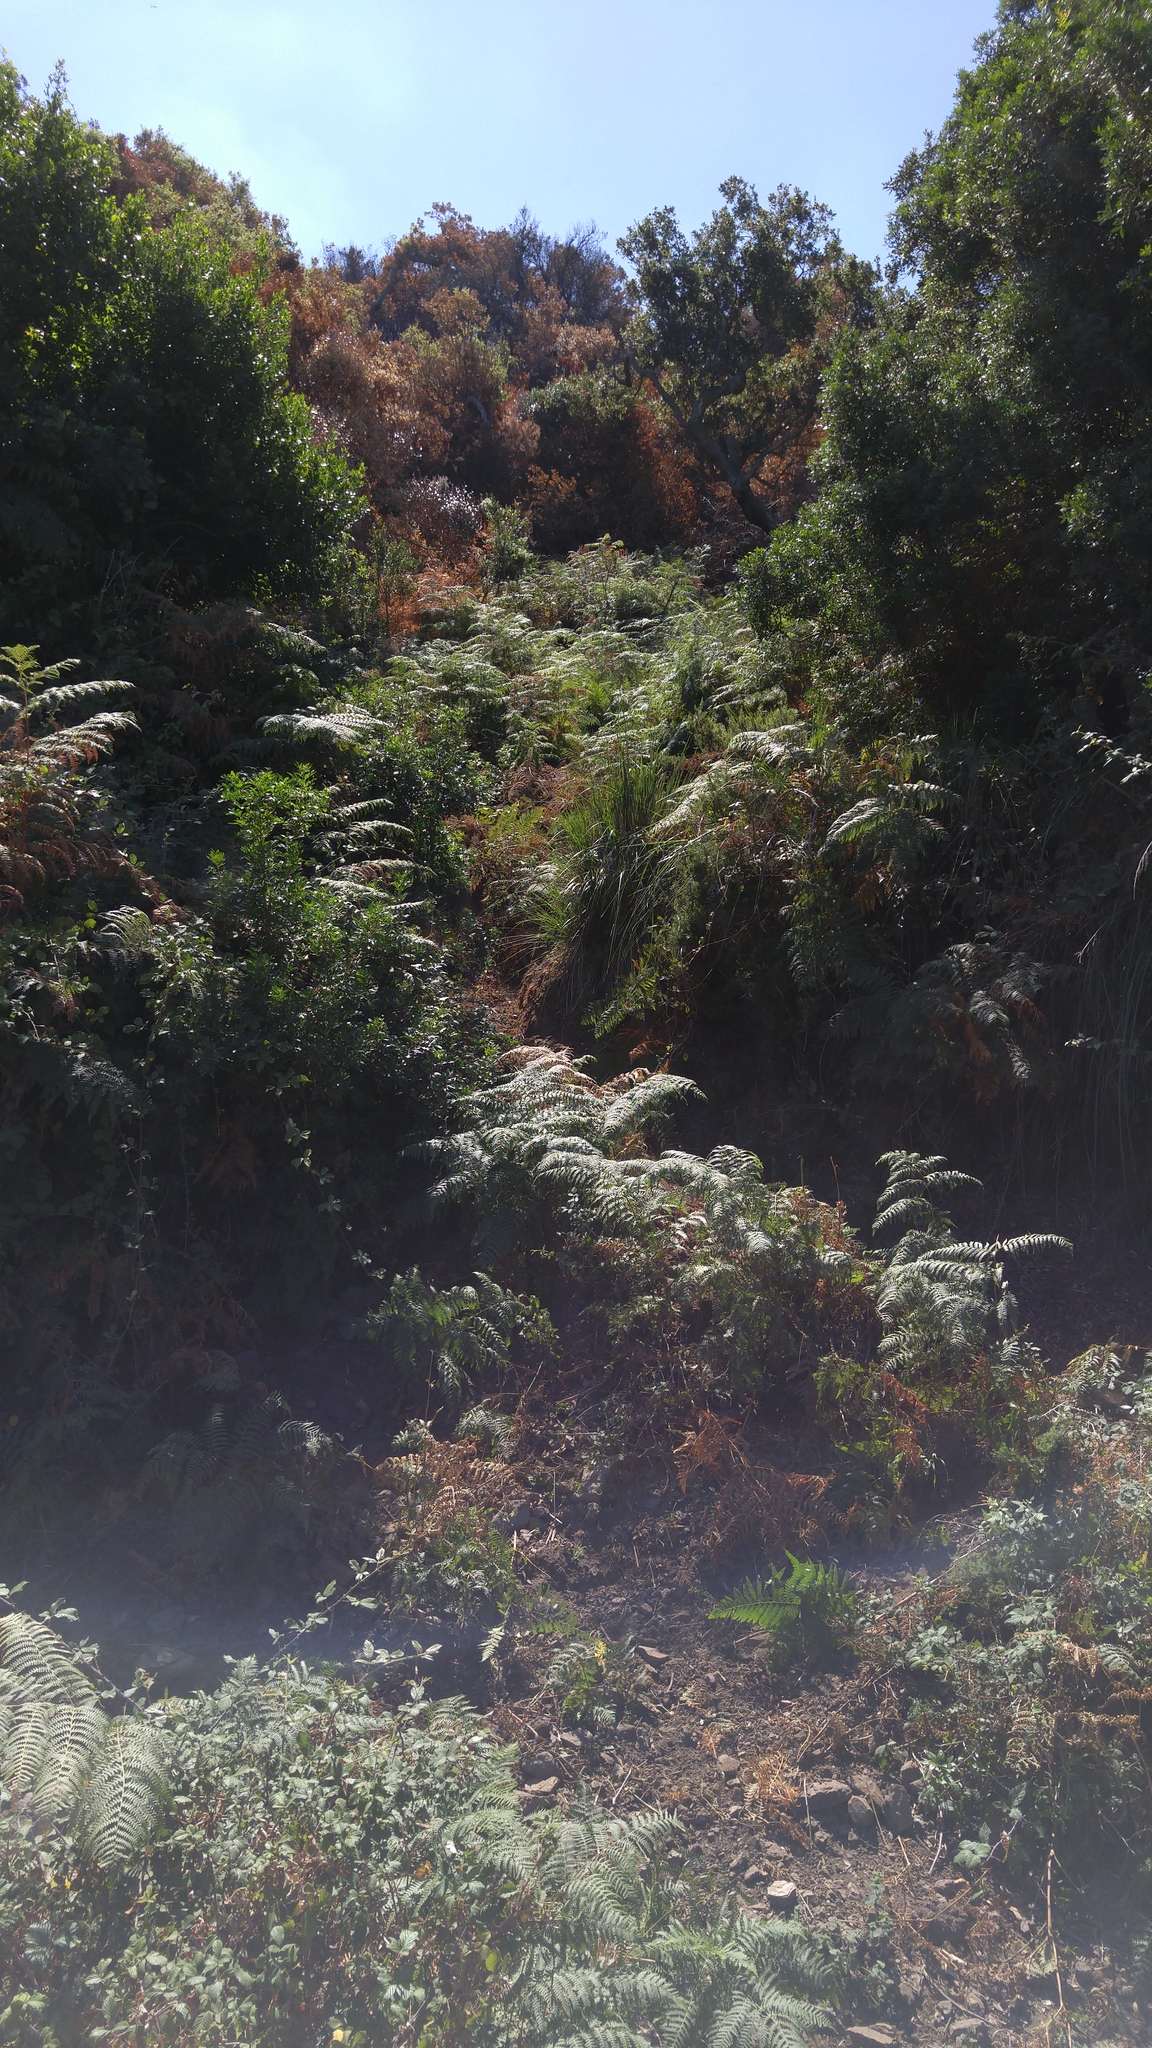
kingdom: Plantae
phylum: Tracheophyta
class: Polypodiopsida
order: Polypodiales
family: Dennstaedtiaceae
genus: Pteridium
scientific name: Pteridium aquilinum
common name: Bracken
